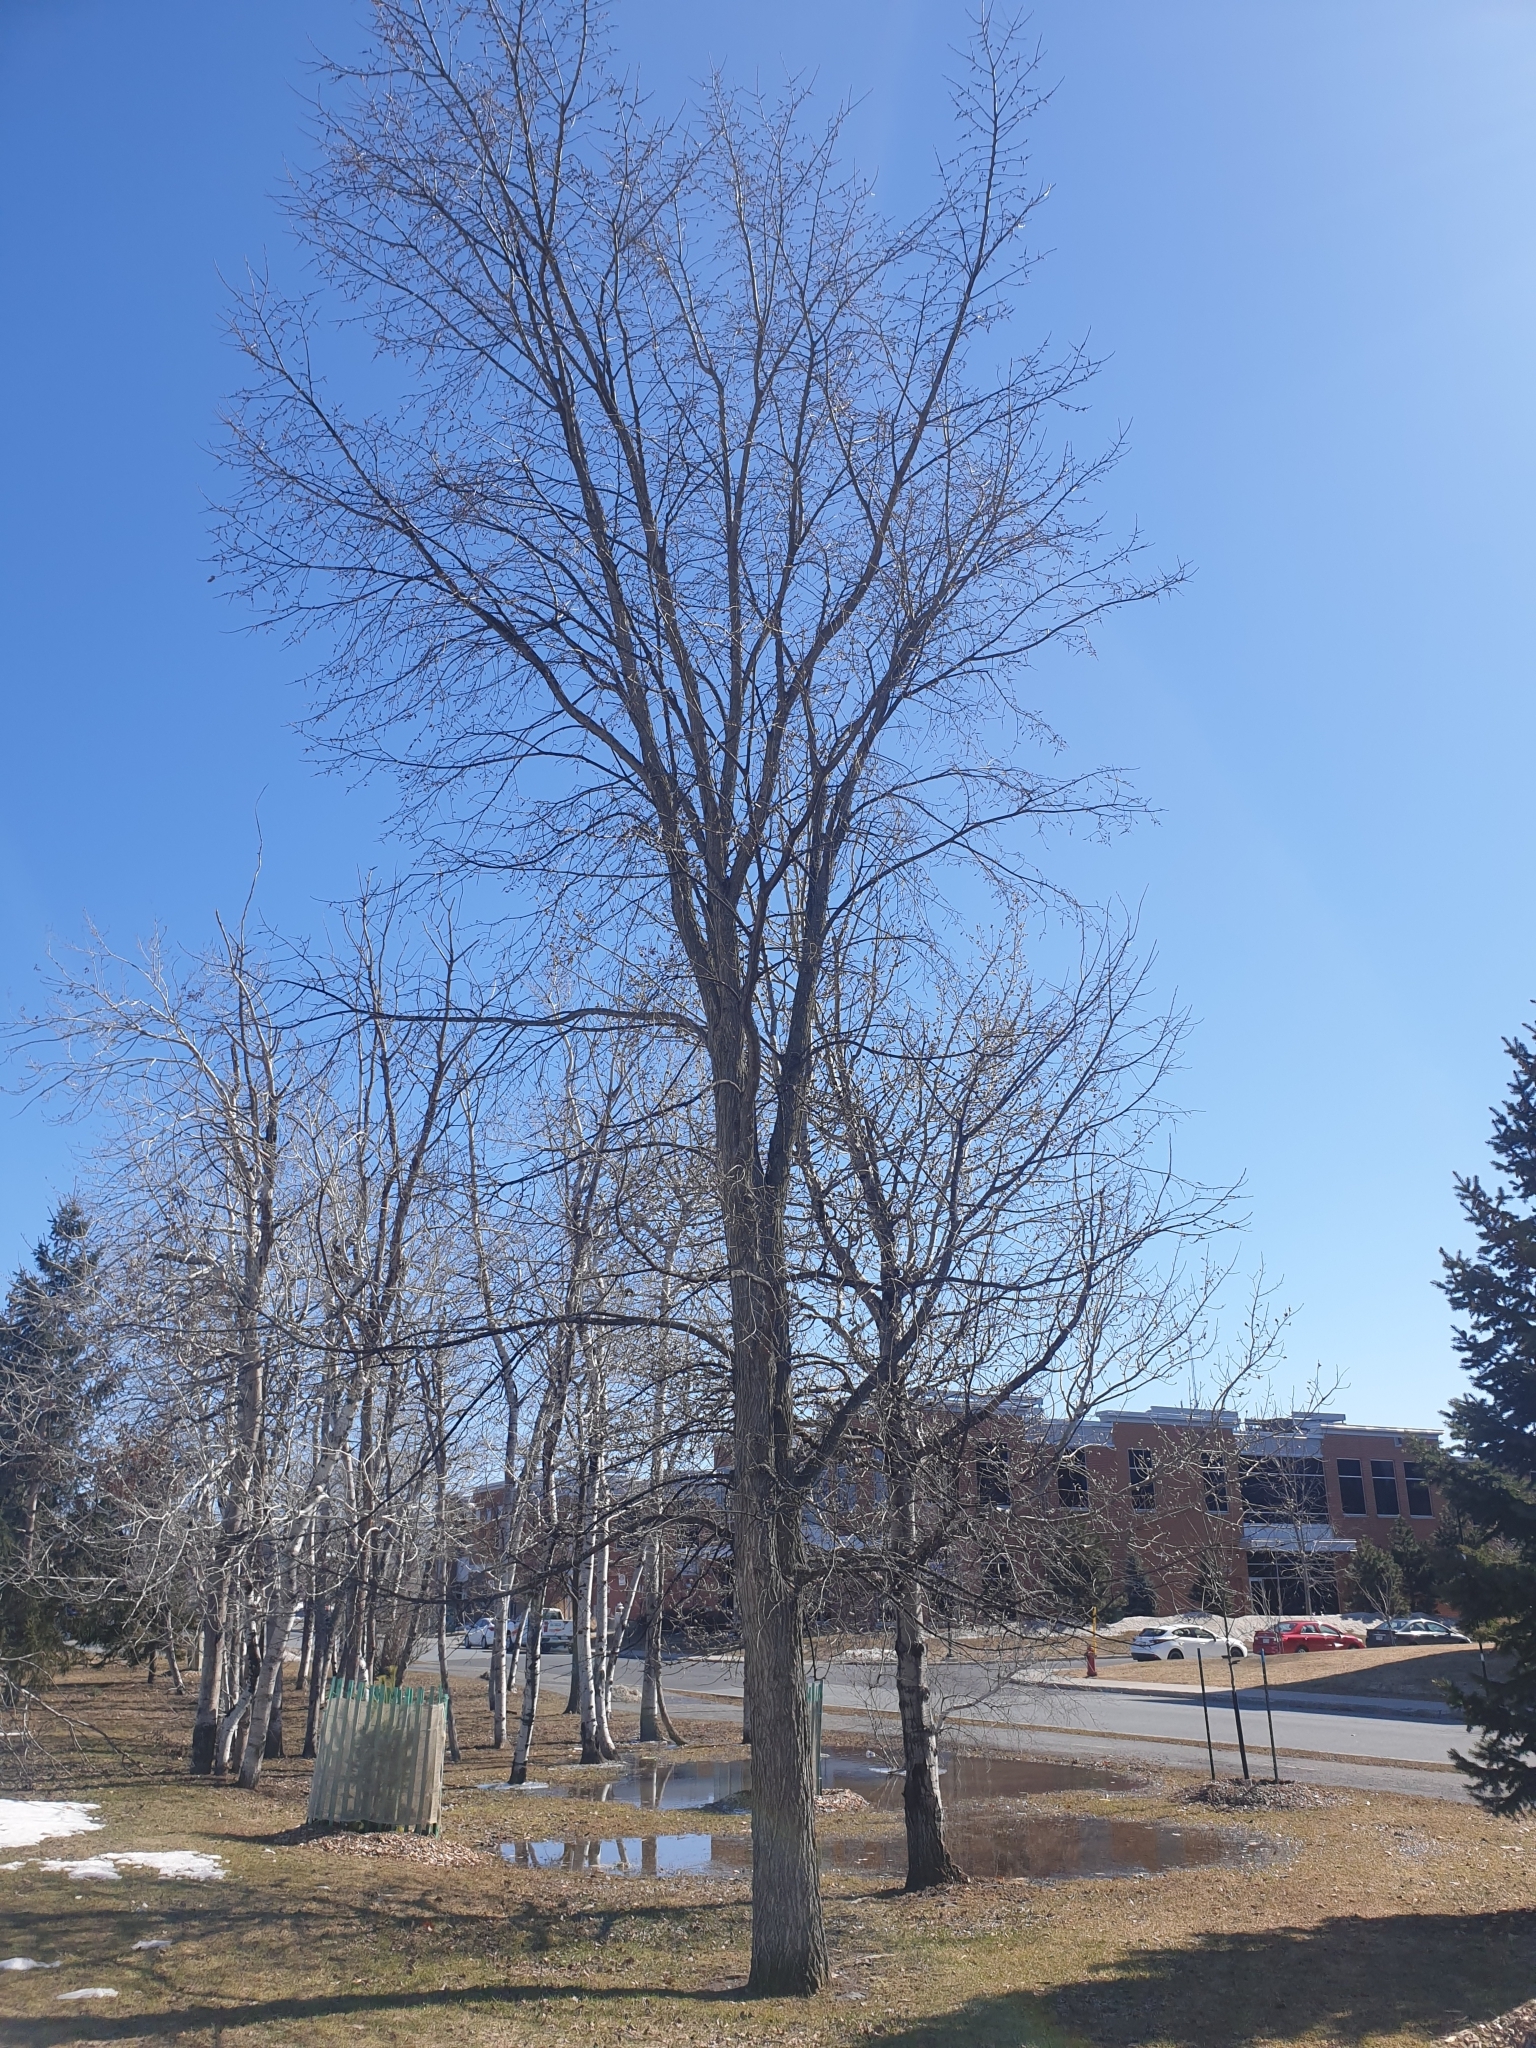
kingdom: Plantae
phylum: Tracheophyta
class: Magnoliopsida
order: Rosales
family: Ulmaceae
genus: Ulmus
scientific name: Ulmus americana
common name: American elm
